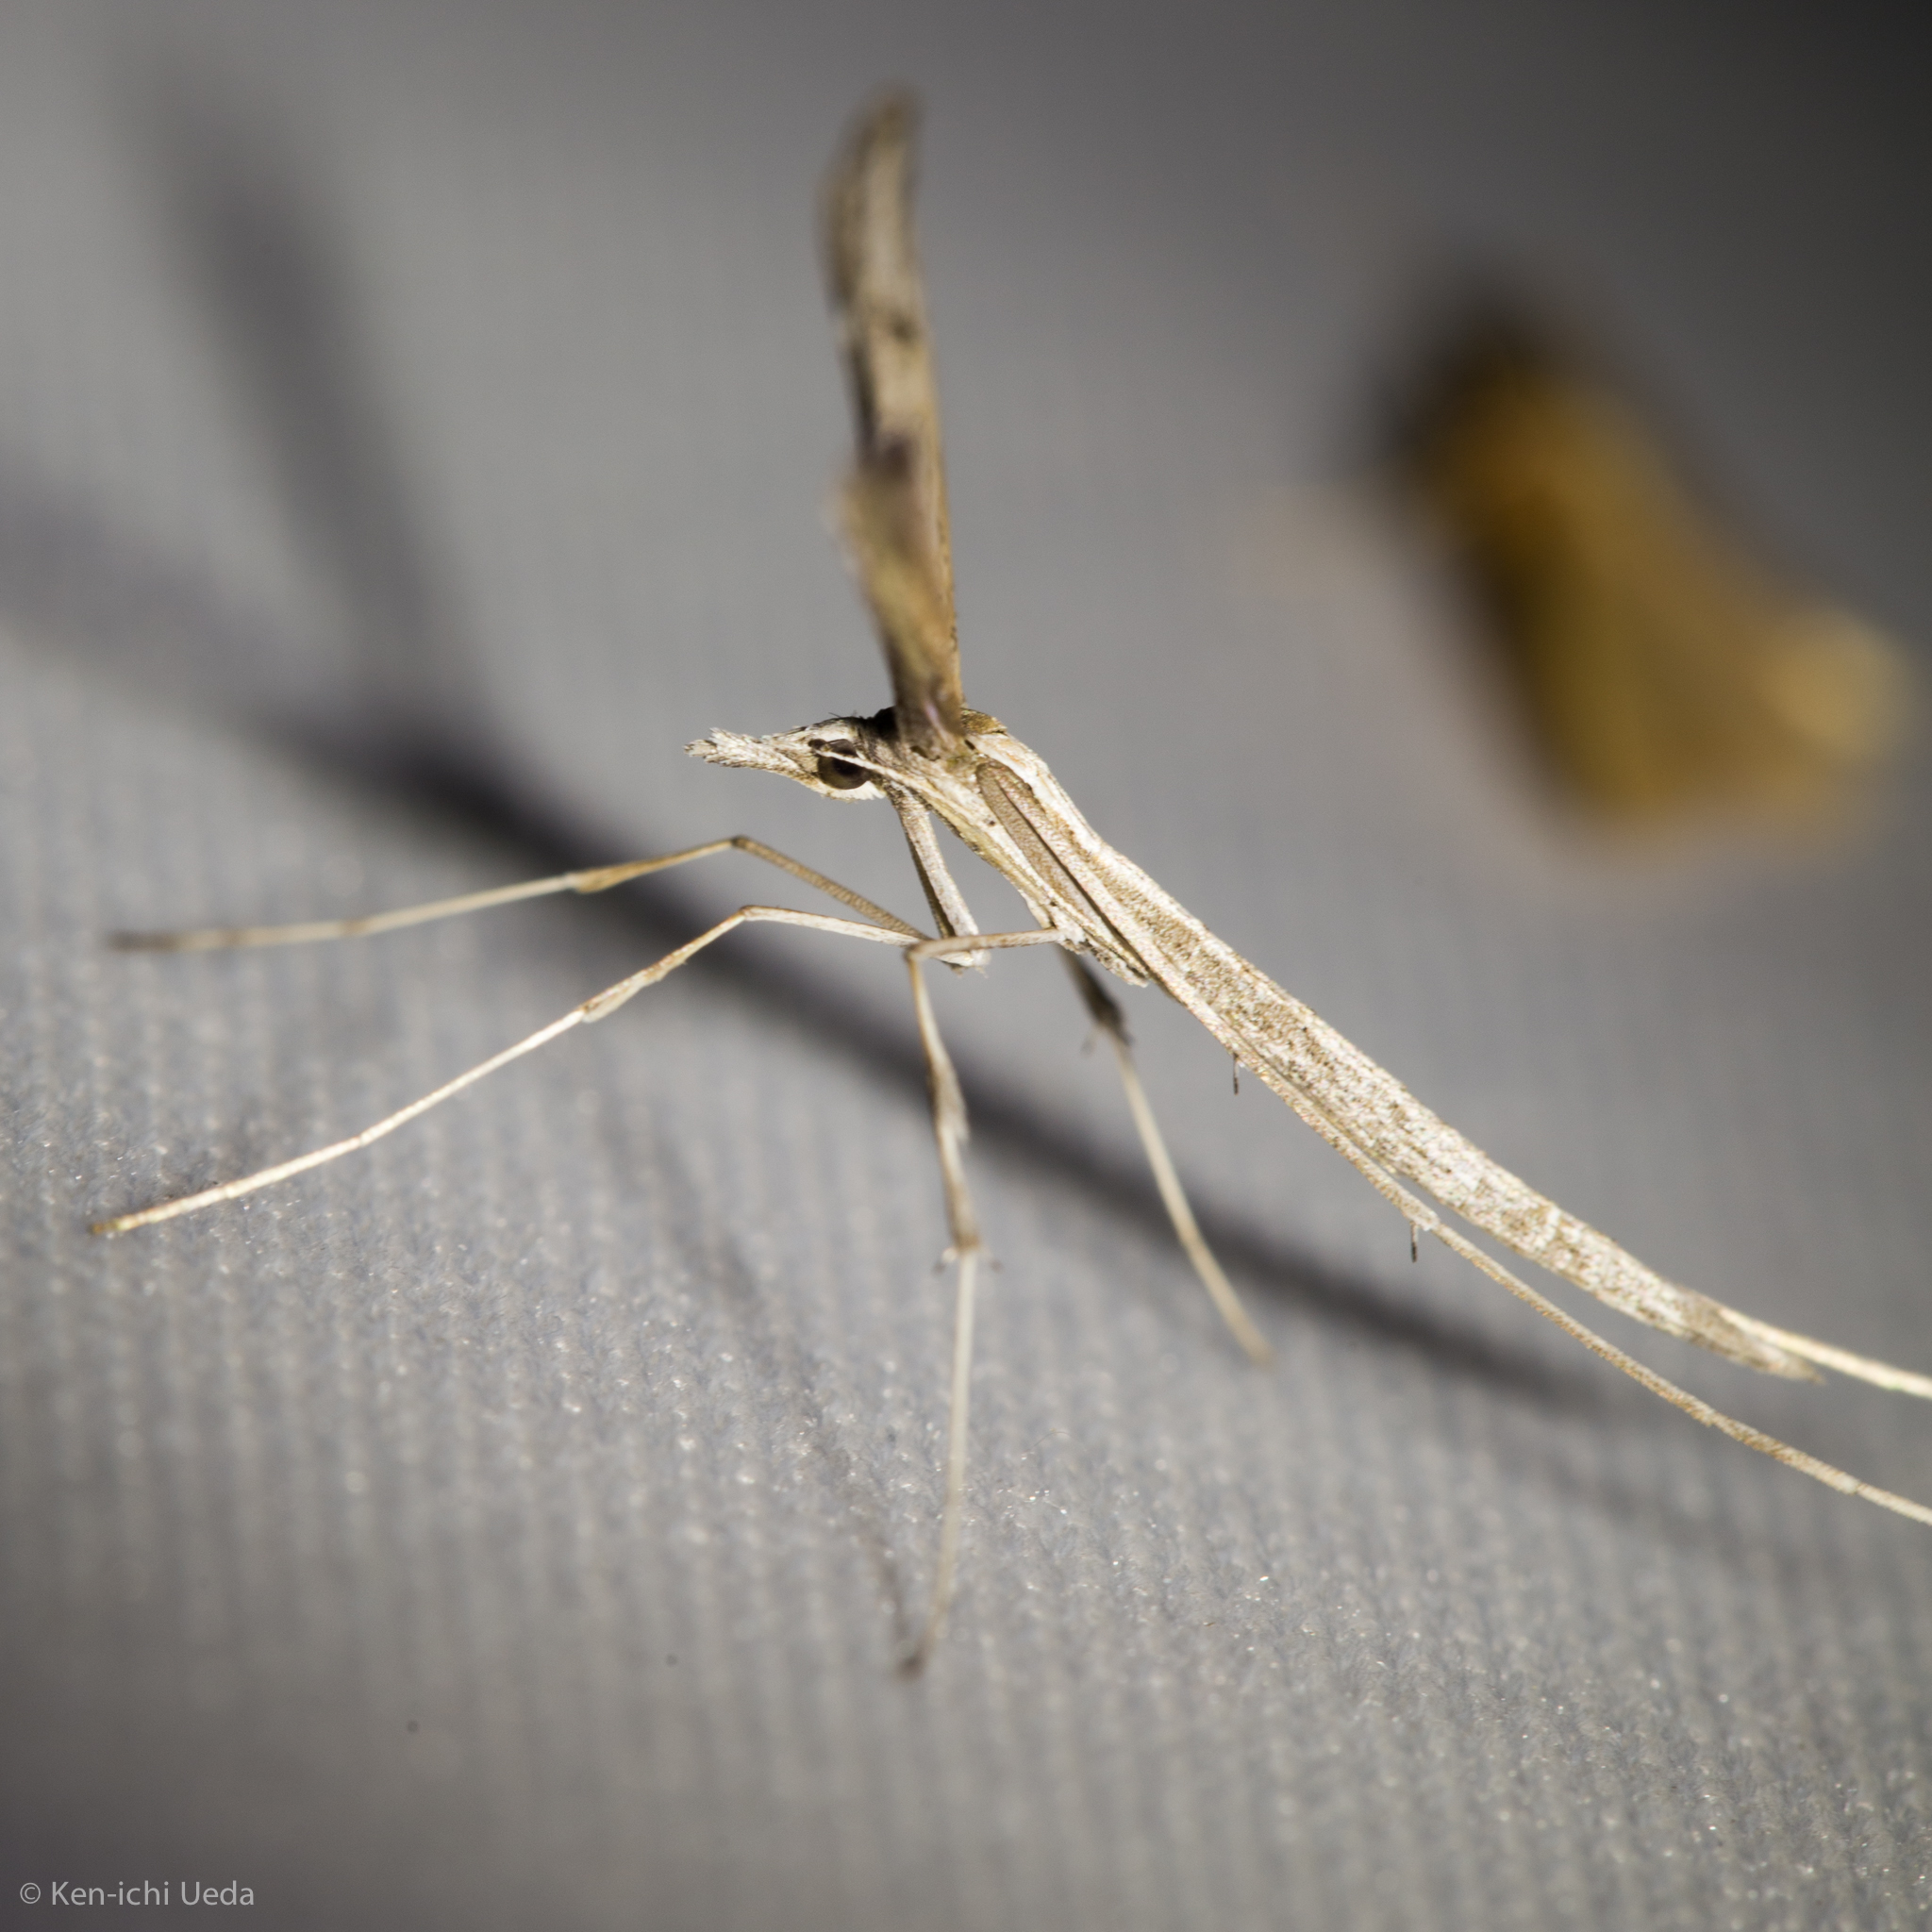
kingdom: Animalia
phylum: Arthropoda
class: Insecta
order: Lepidoptera
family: Pterophoridae
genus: Hellinsia
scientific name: Hellinsia longifrons
